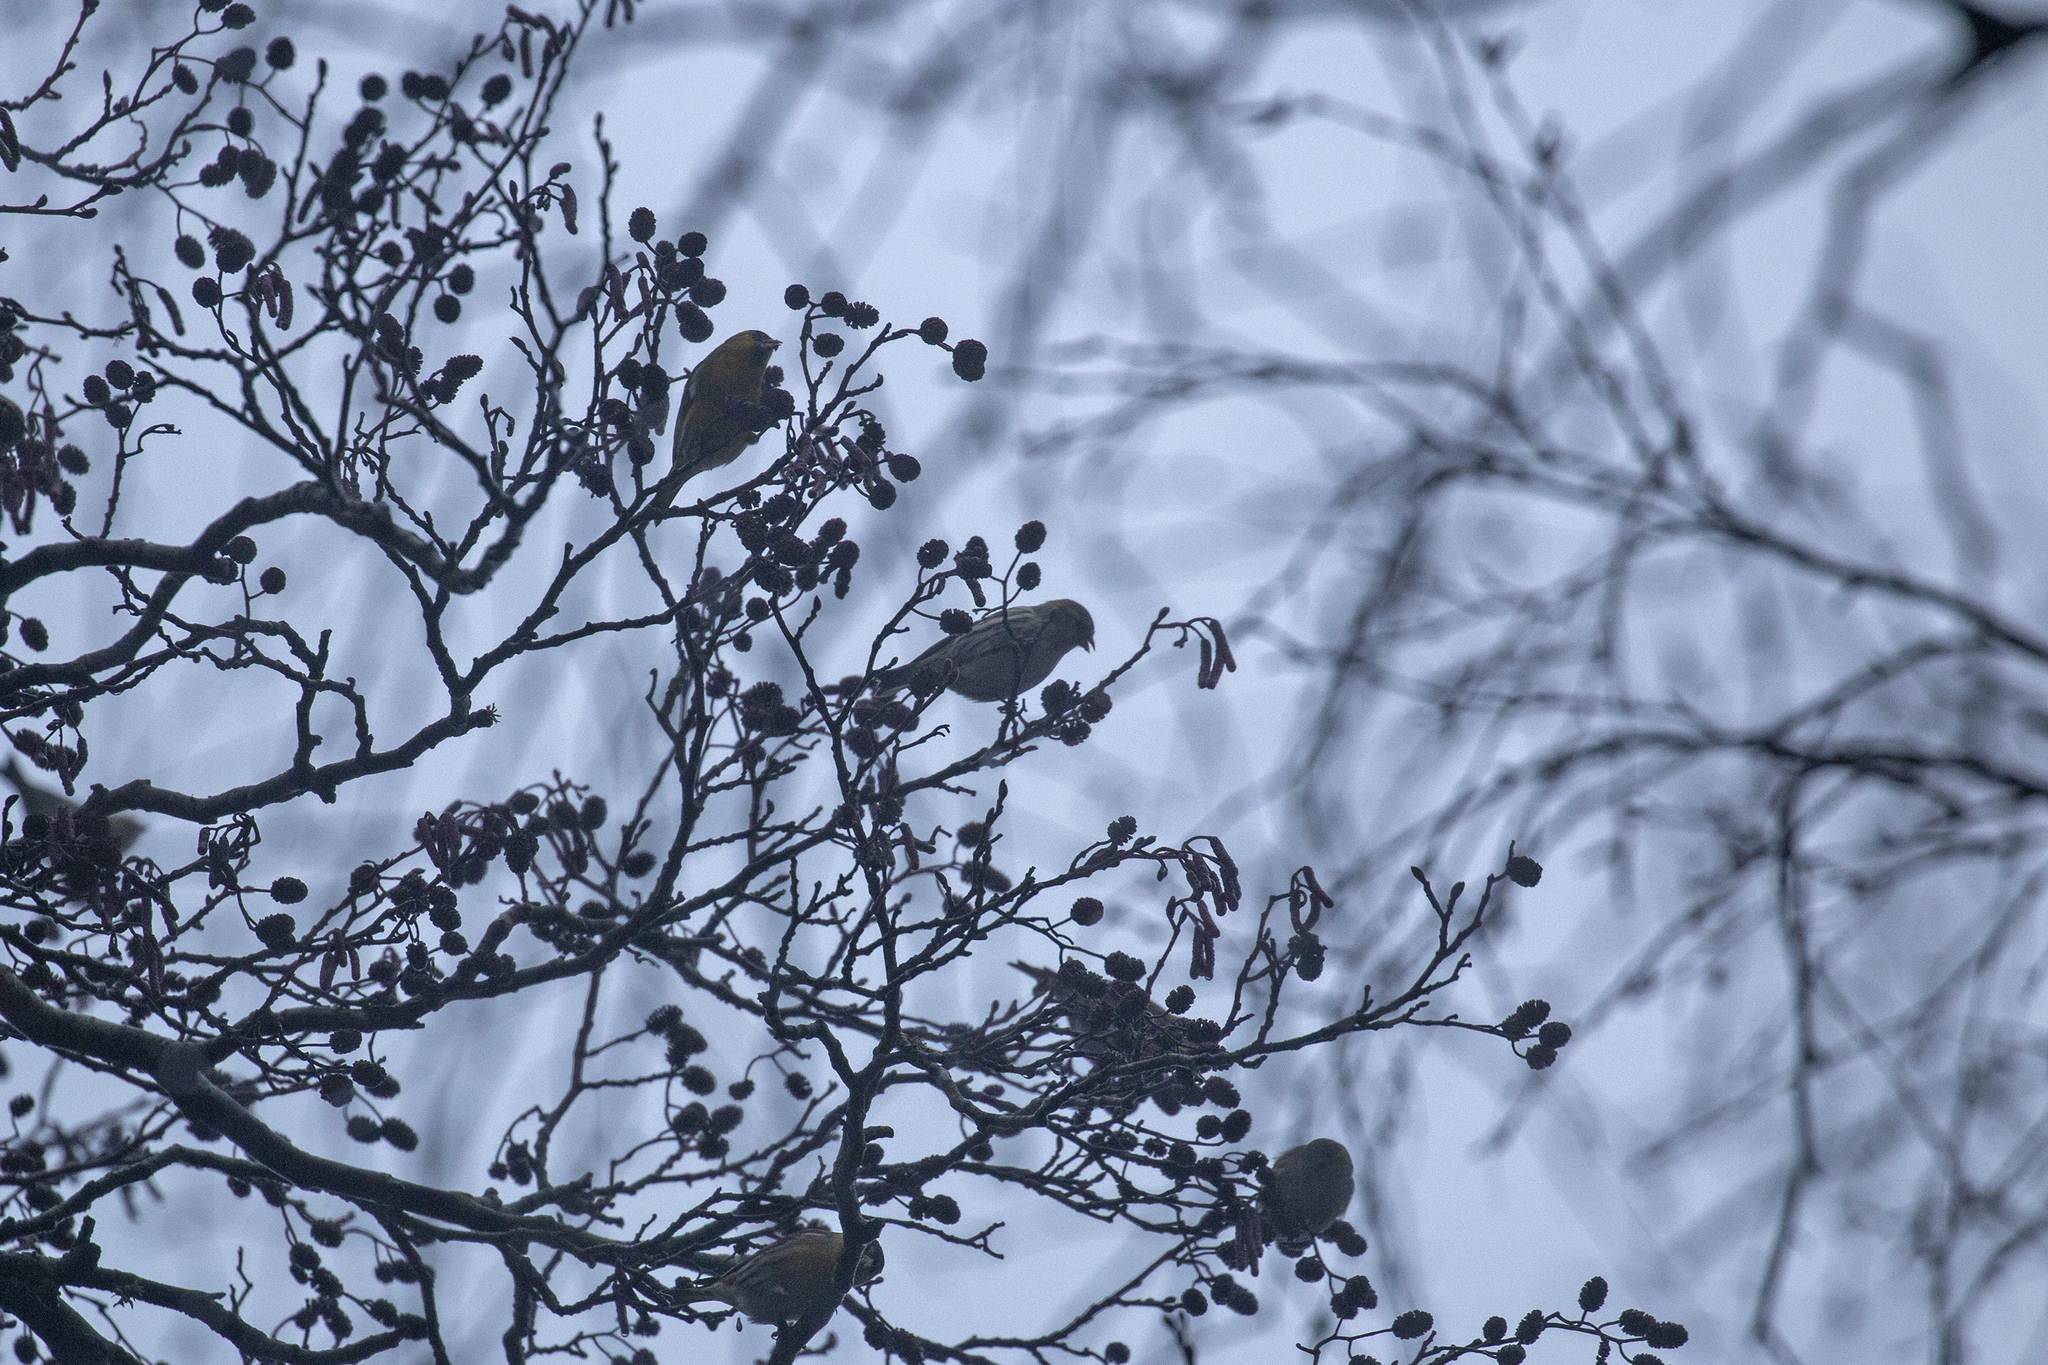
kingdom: Animalia
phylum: Chordata
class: Aves
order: Passeriformes
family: Fringillidae
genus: Spinus
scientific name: Spinus spinus
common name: Eurasian siskin
